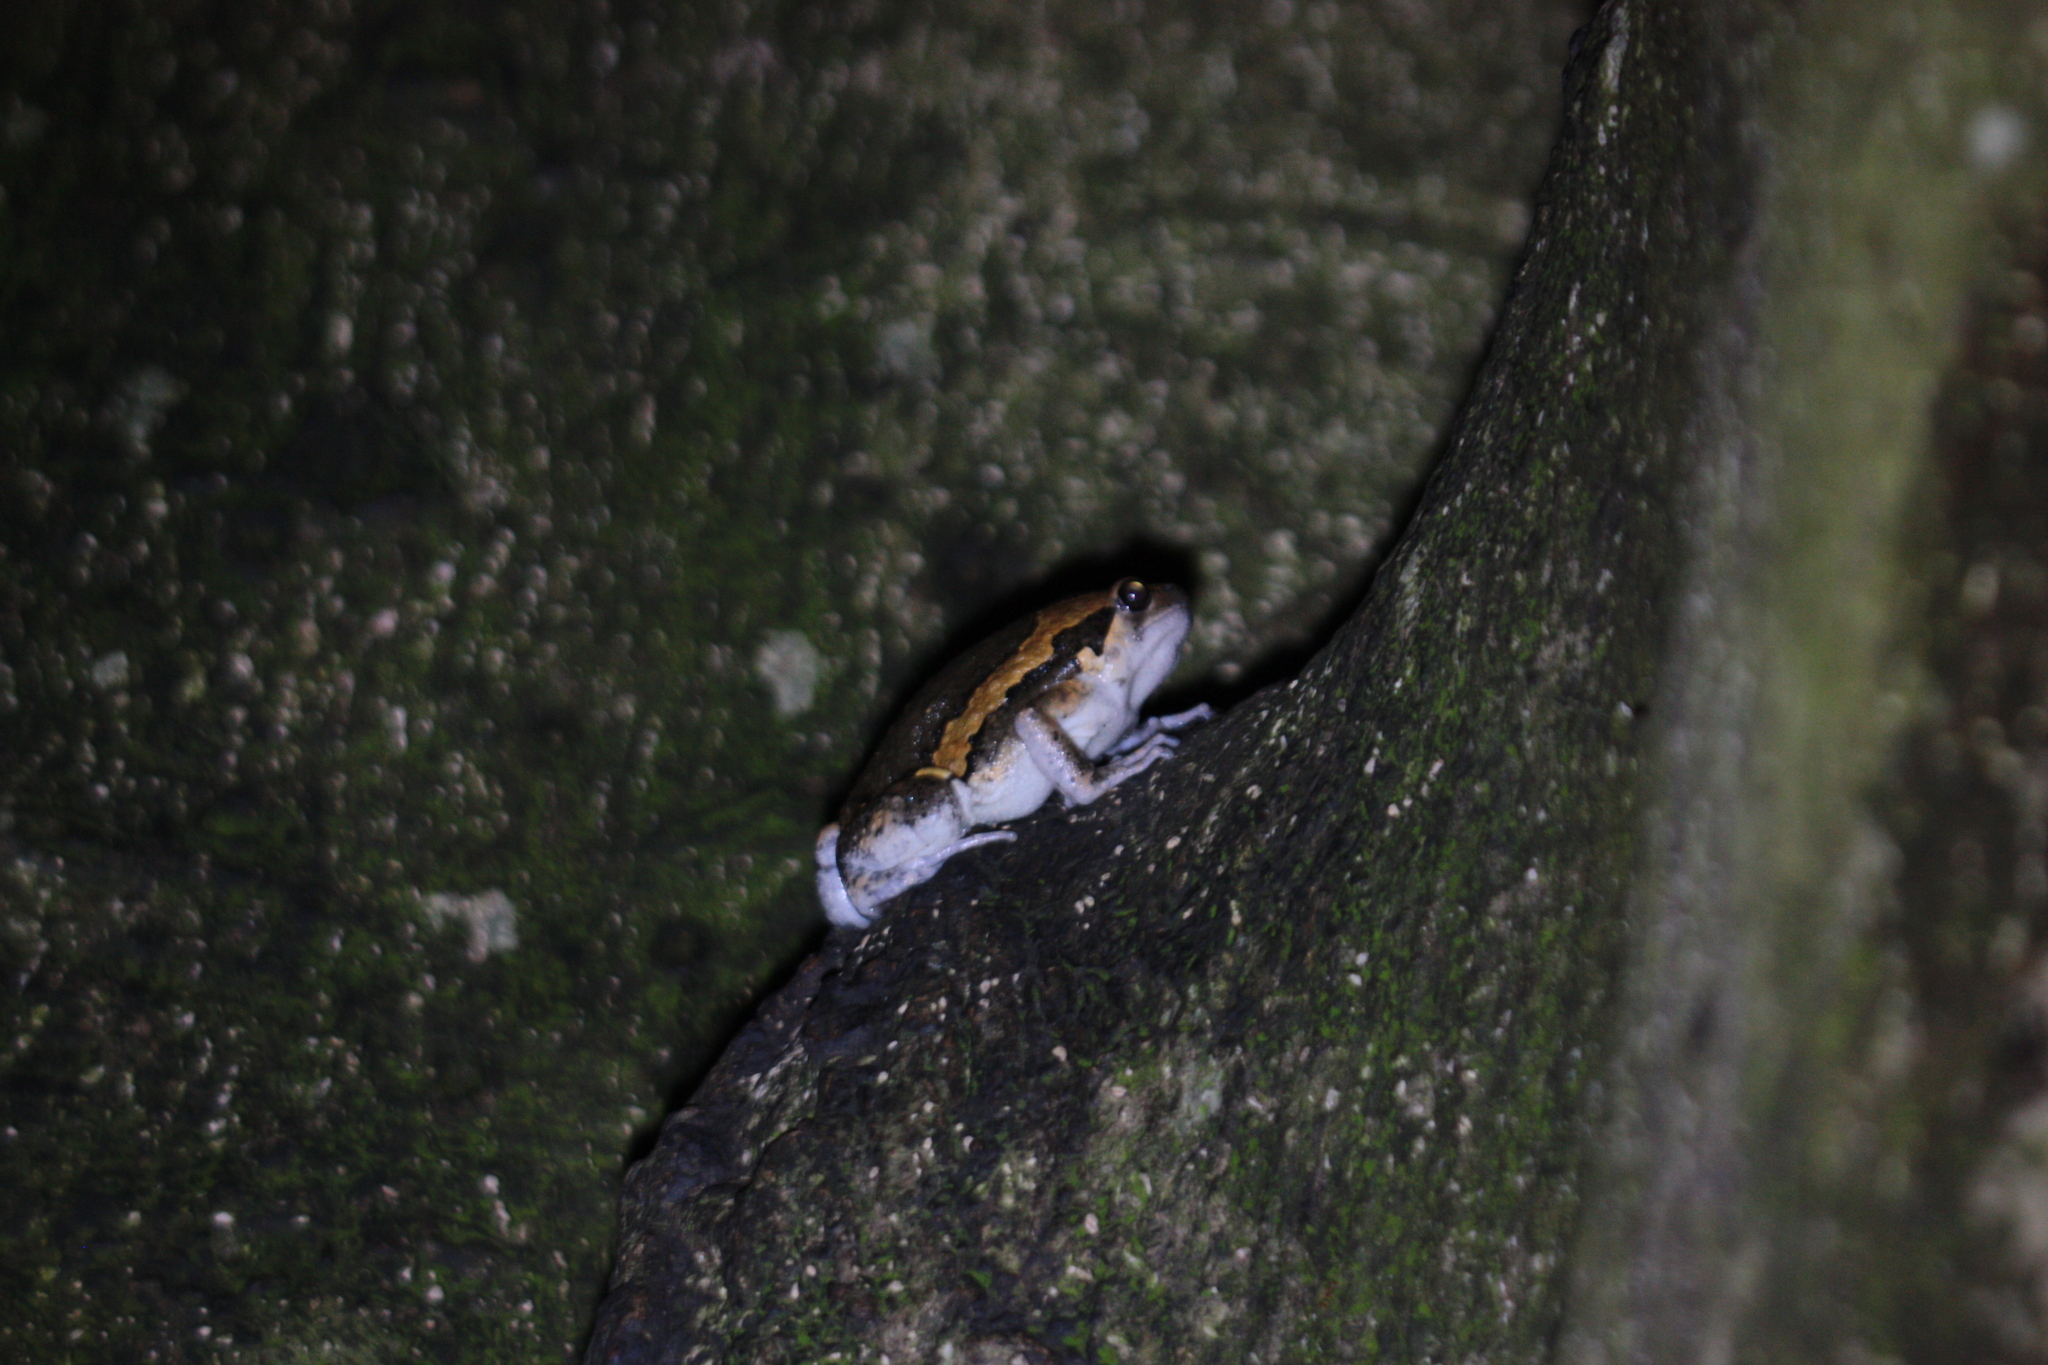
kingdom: Animalia
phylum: Chordata
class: Amphibia
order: Anura
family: Microhylidae
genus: Kaloula
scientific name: Kaloula pulchra
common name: Common,banded bullfrog
